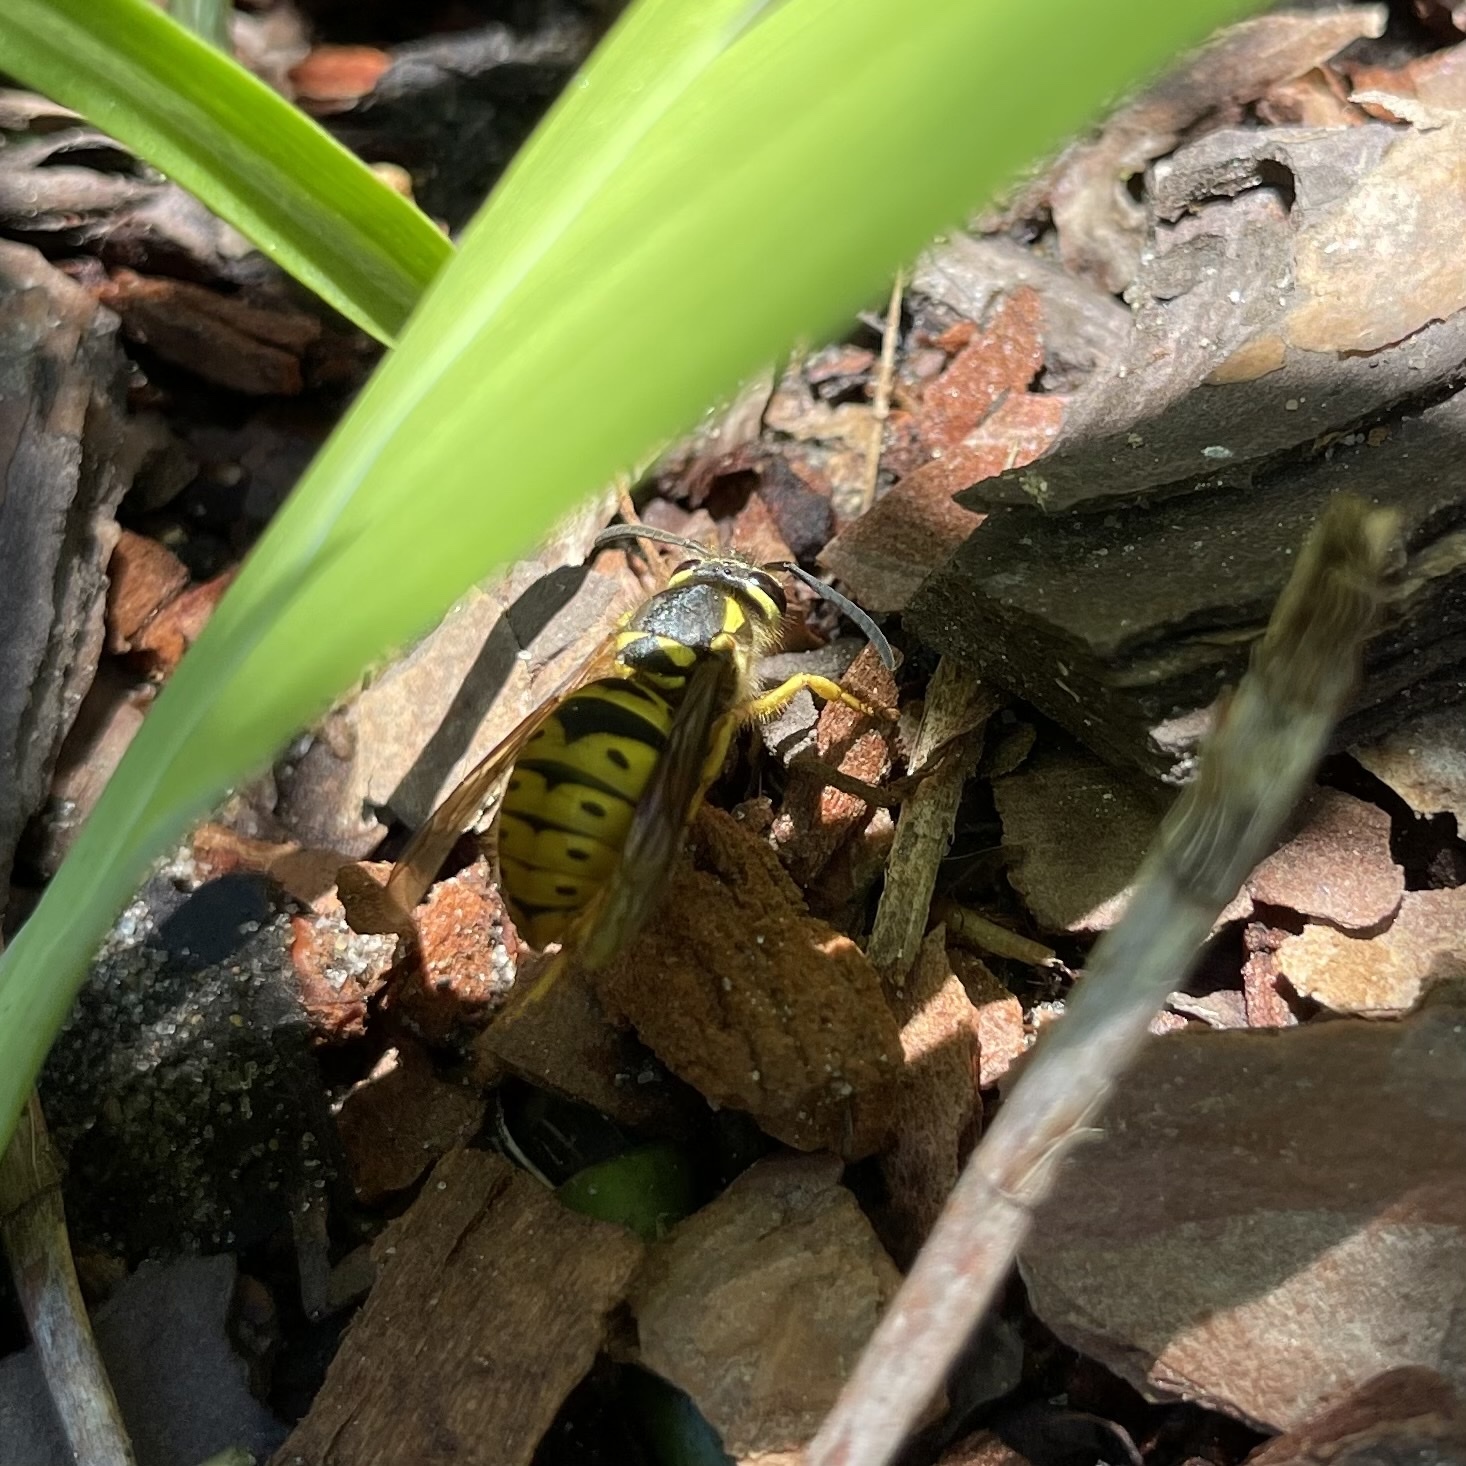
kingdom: Animalia
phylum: Arthropoda
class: Insecta
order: Hymenoptera
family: Vespidae
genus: Vespula
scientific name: Vespula maculifrons
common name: Eastern yellowjacket
